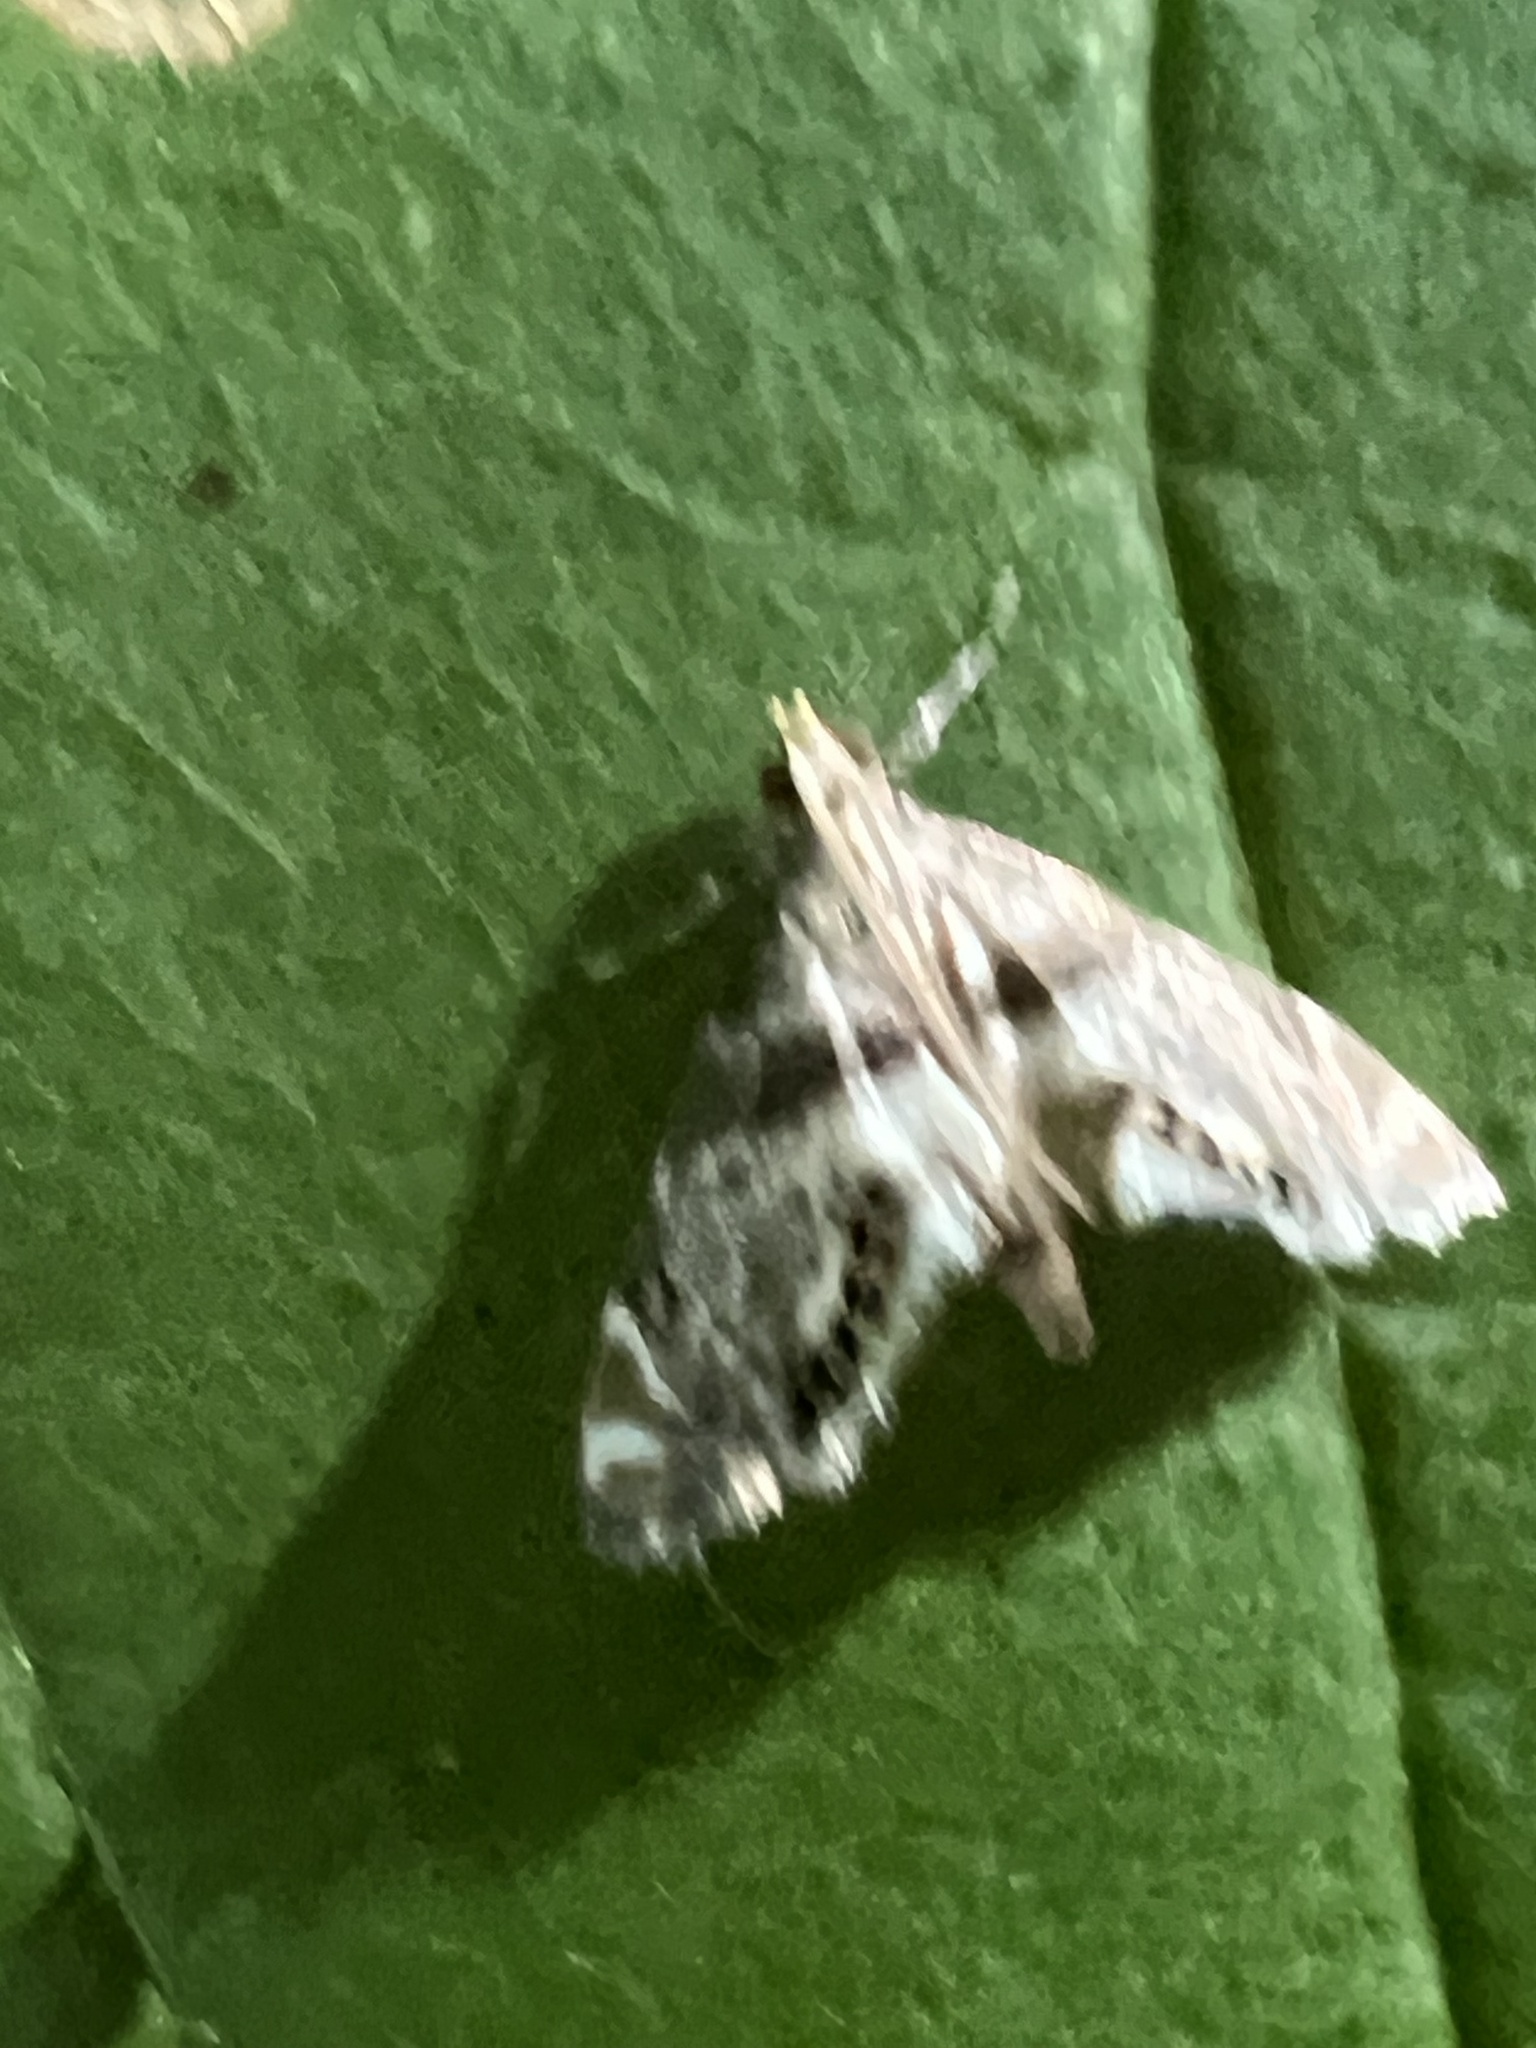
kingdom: Animalia
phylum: Arthropoda
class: Insecta
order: Lepidoptera
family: Crambidae
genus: Petrophila
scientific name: Petrophila fulicalis
